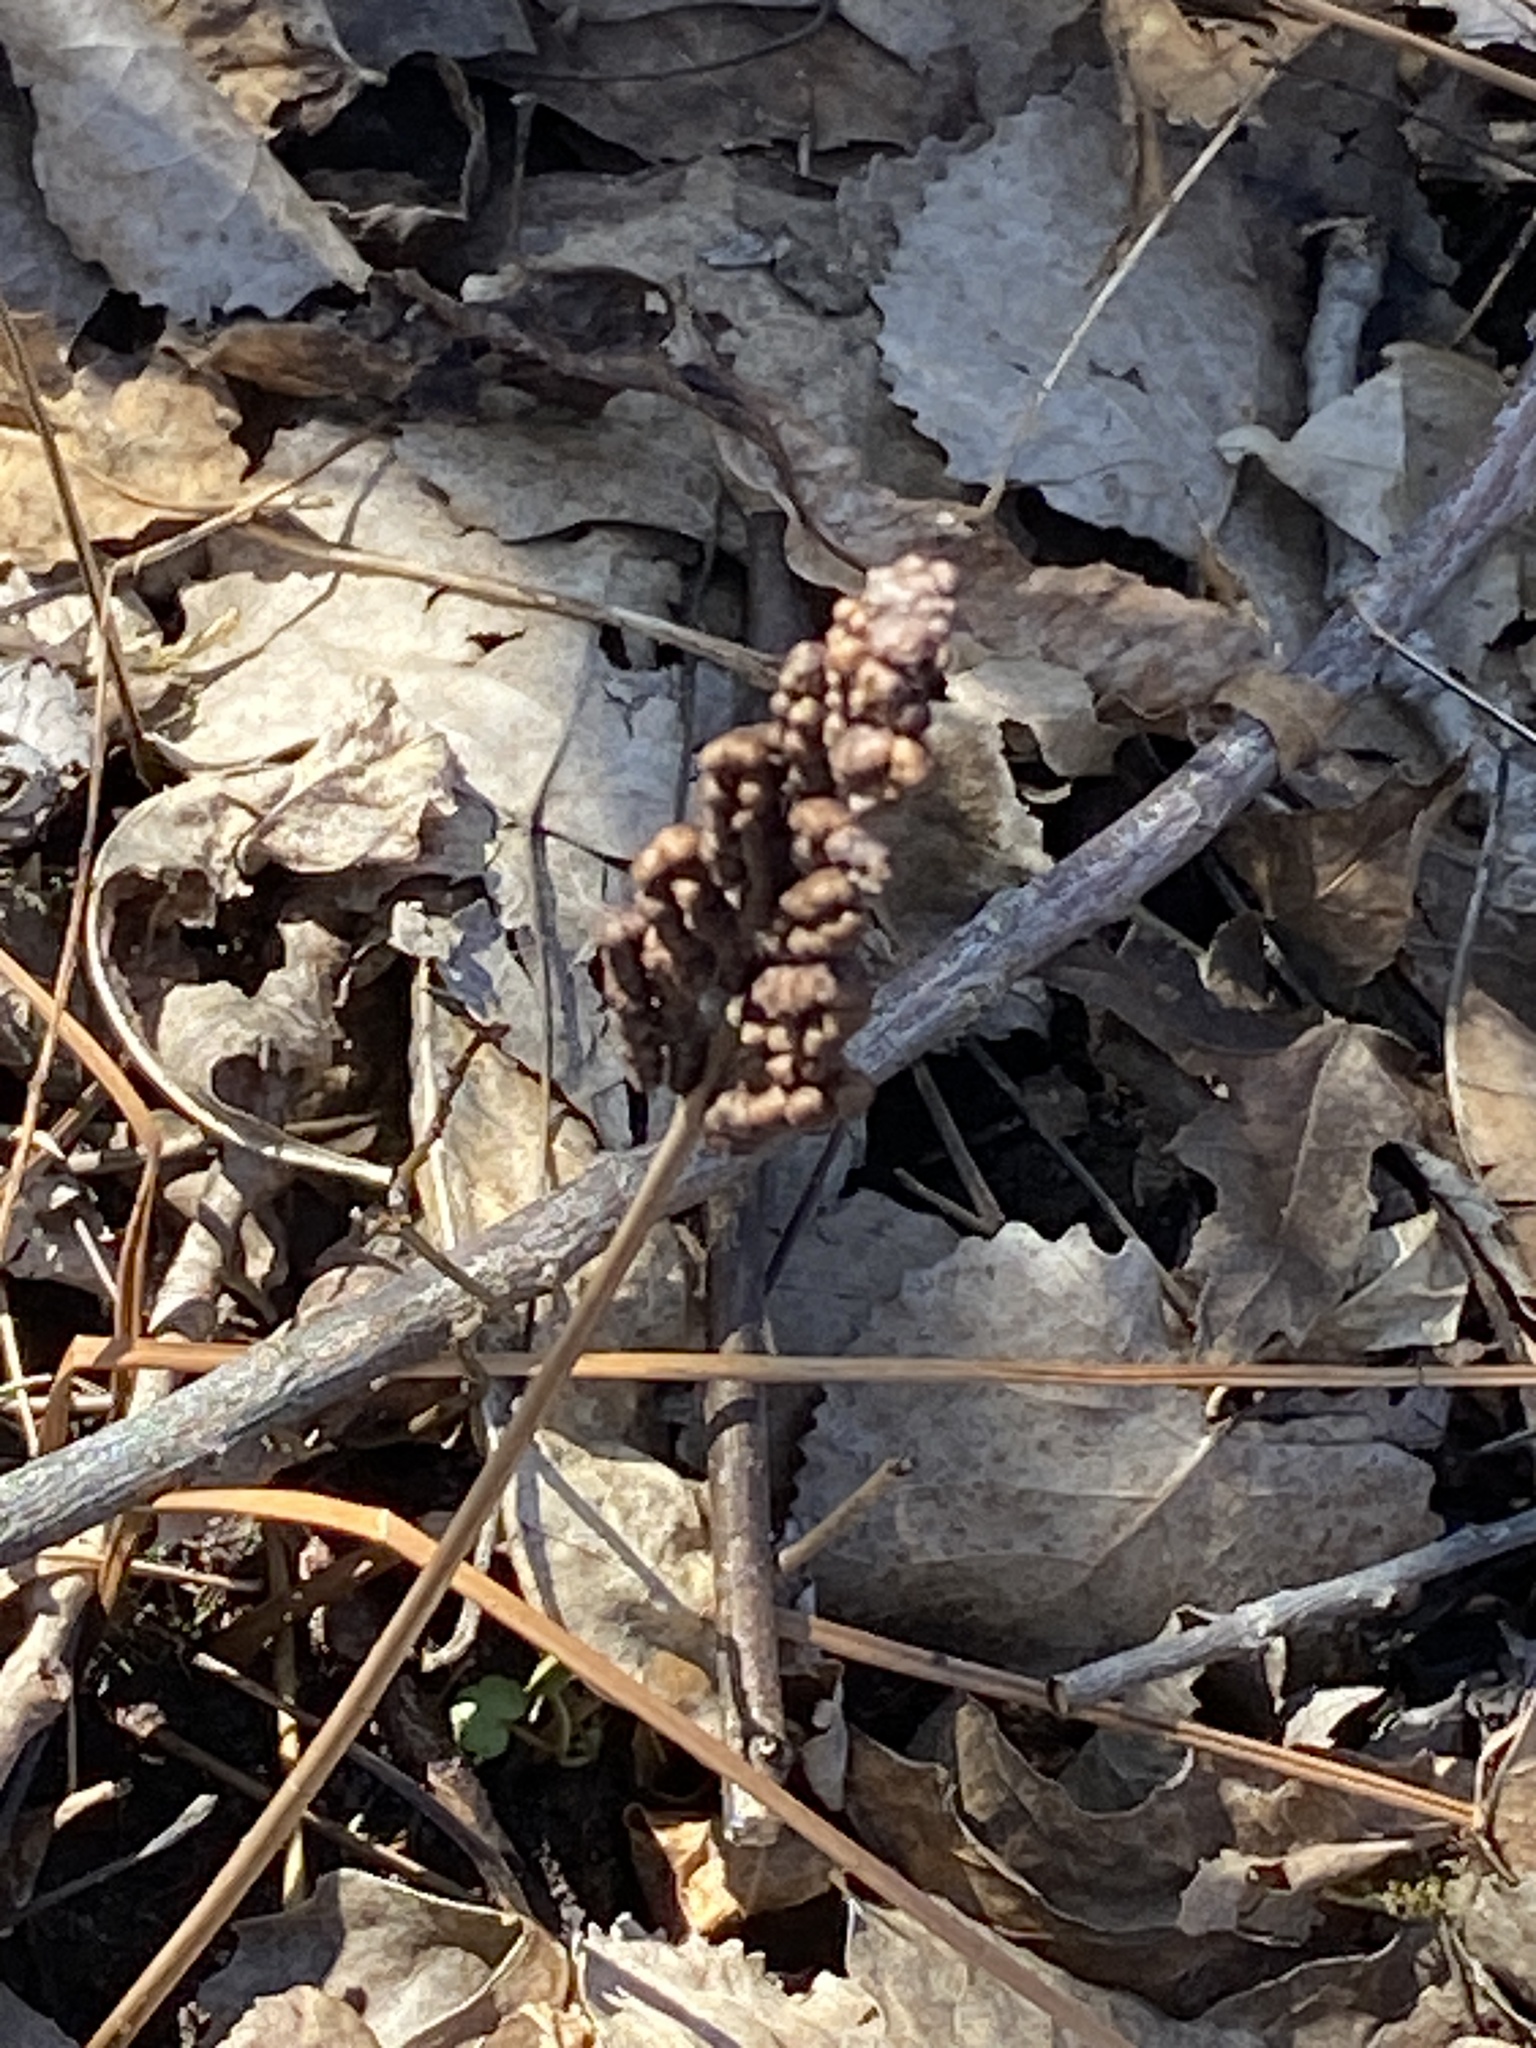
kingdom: Plantae
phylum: Tracheophyta
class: Polypodiopsida
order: Polypodiales
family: Onocleaceae
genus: Onoclea
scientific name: Onoclea sensibilis
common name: Sensitive fern
